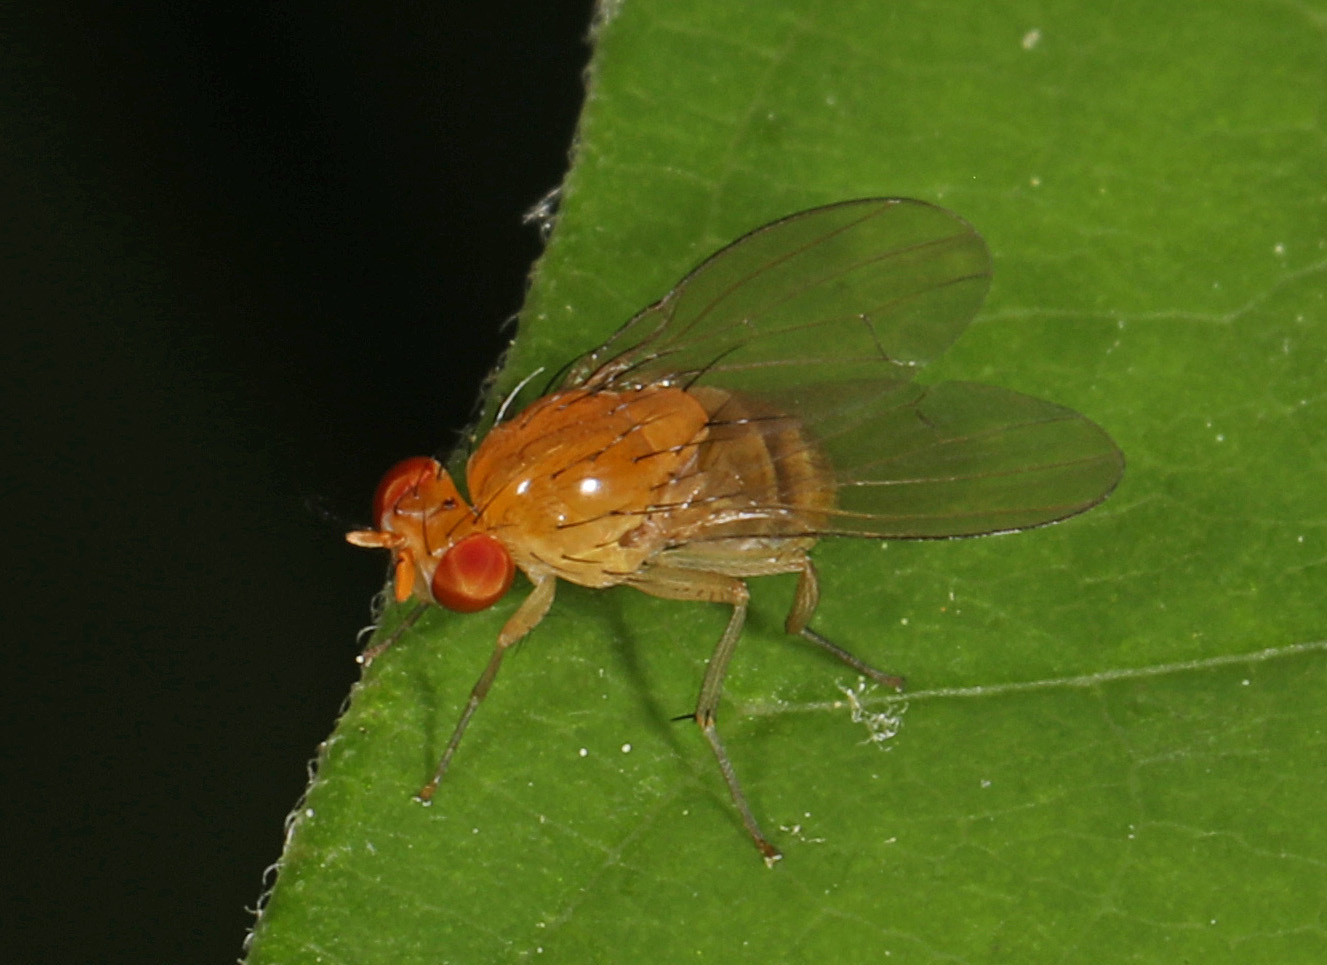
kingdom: Animalia
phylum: Arthropoda
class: Insecta
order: Diptera
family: Lauxaniidae
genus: Neogriphoneura
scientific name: Neogriphoneura sordida
